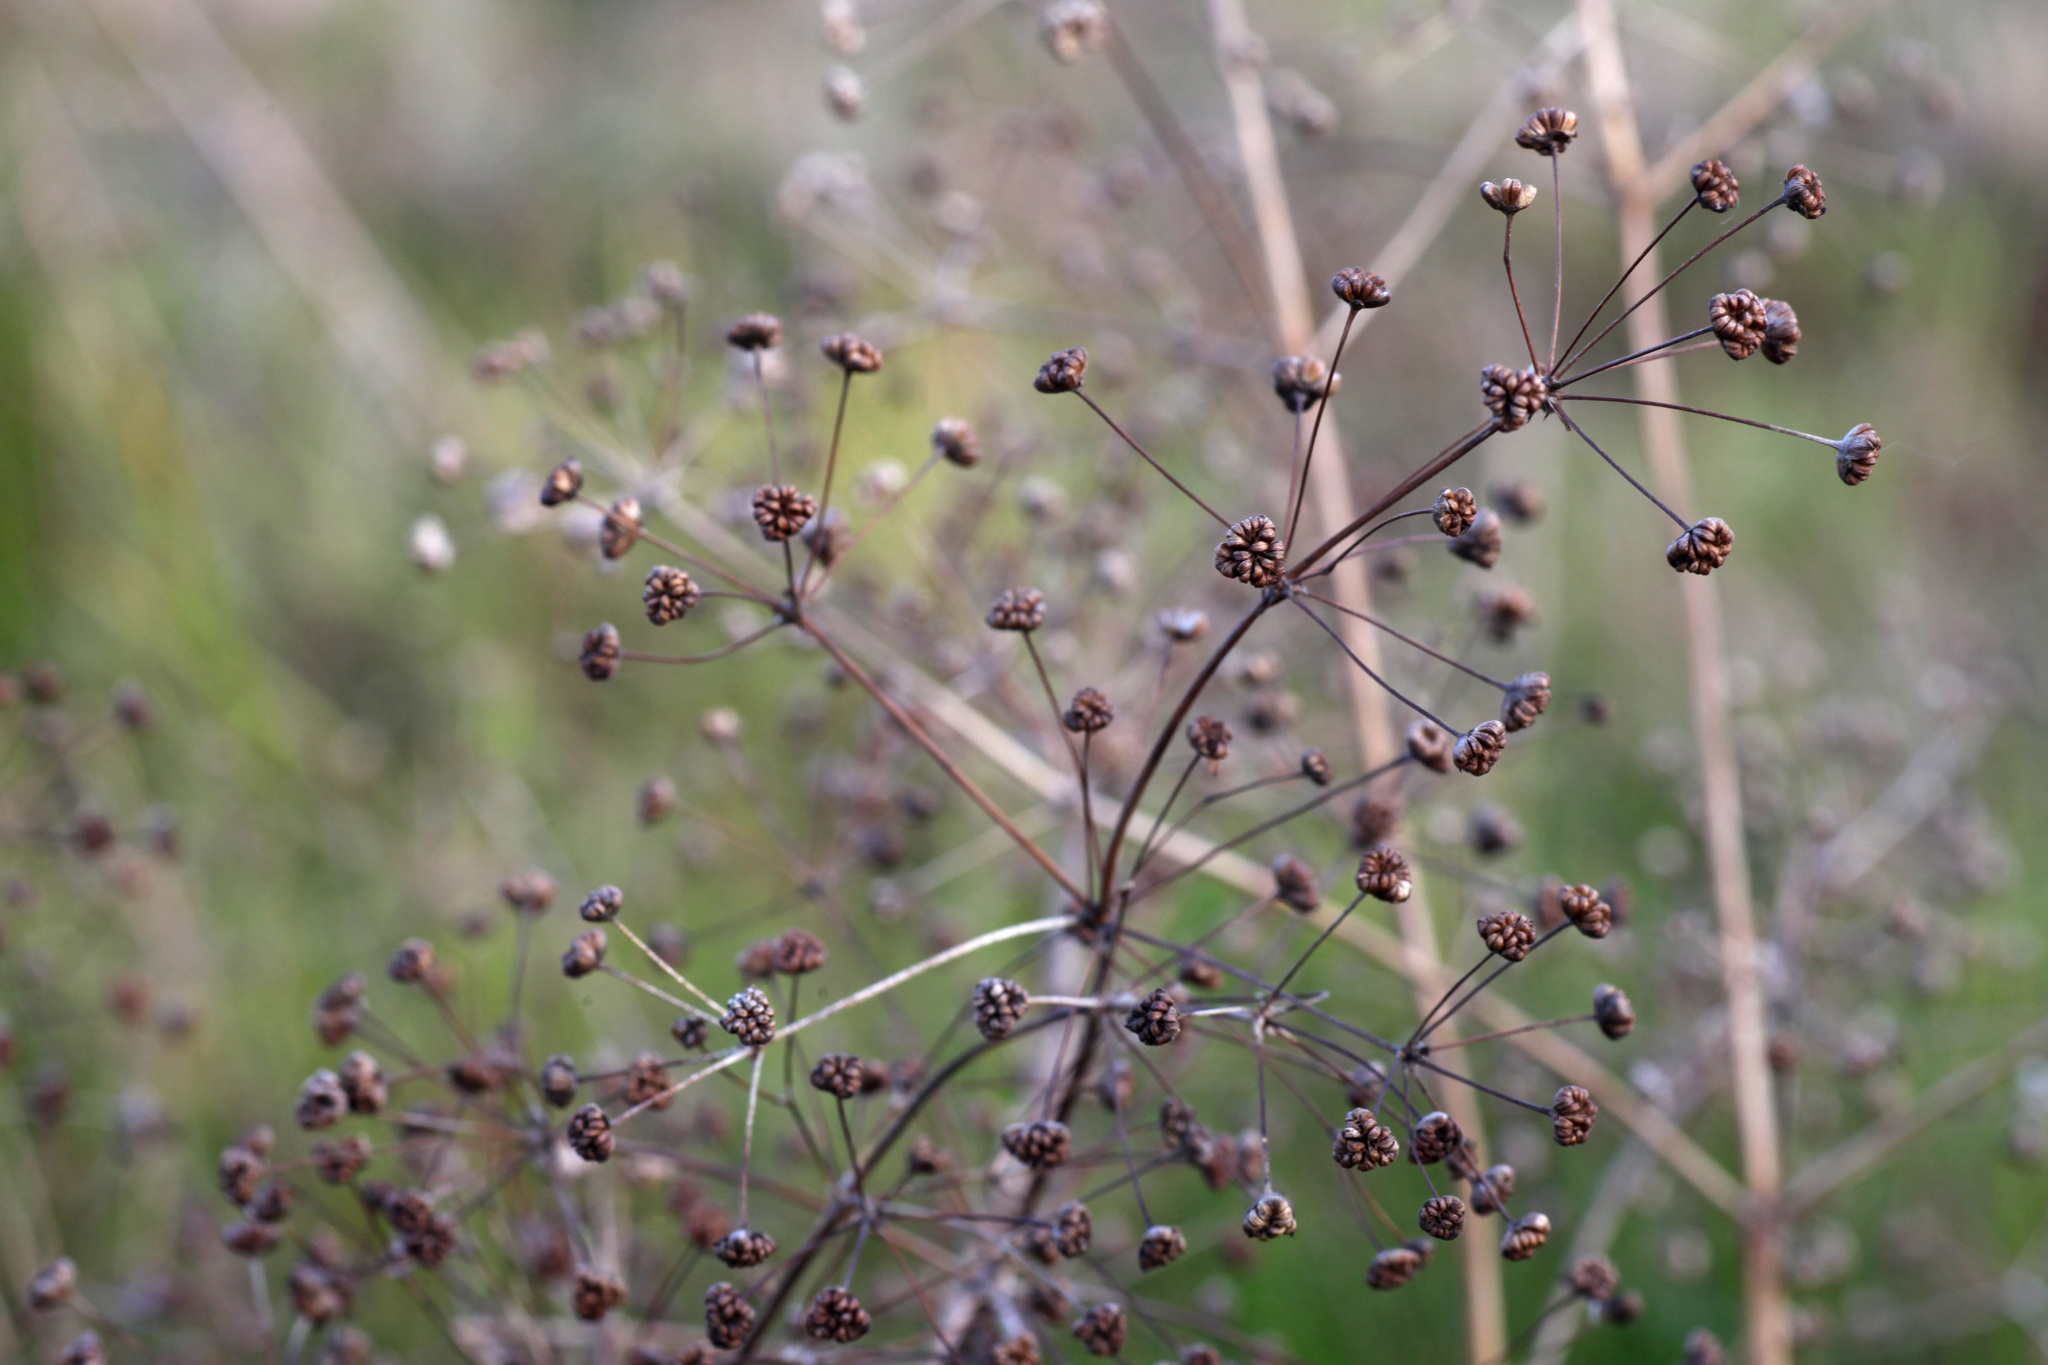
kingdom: Plantae
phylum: Tracheophyta
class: Liliopsida
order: Alismatales
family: Alismataceae
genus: Alisma
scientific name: Alisma plantago-aquatica
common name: Water-plantain
